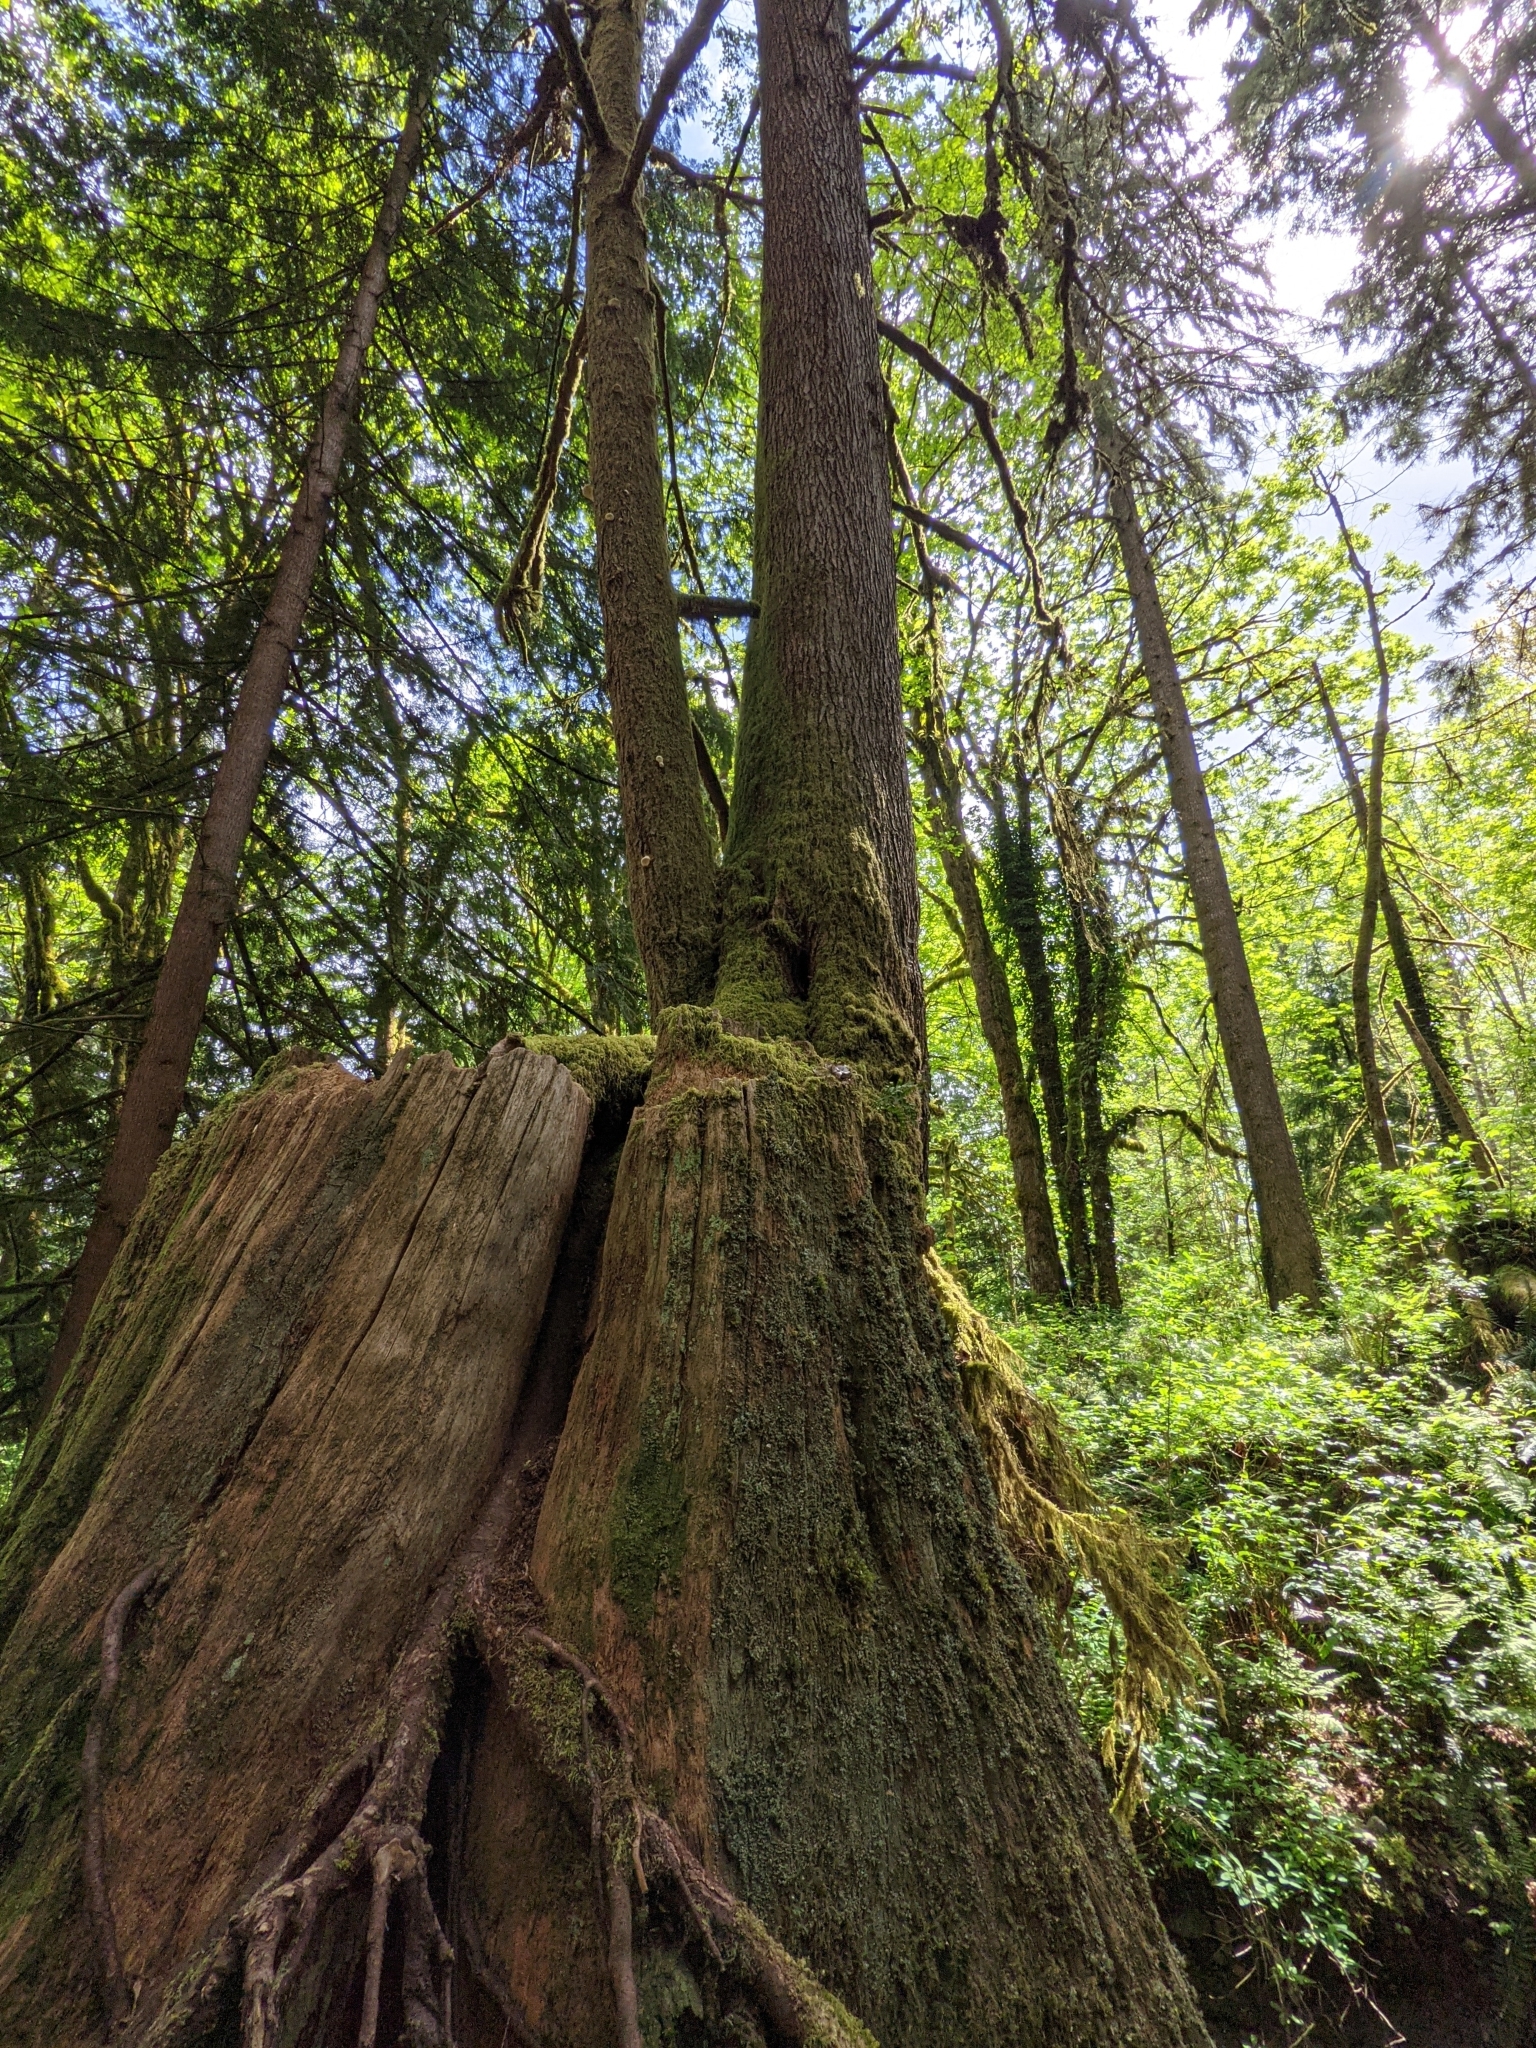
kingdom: Plantae
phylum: Tracheophyta
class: Pinopsida
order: Pinales
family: Pinaceae
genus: Tsuga
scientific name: Tsuga heterophylla
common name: Western hemlock
